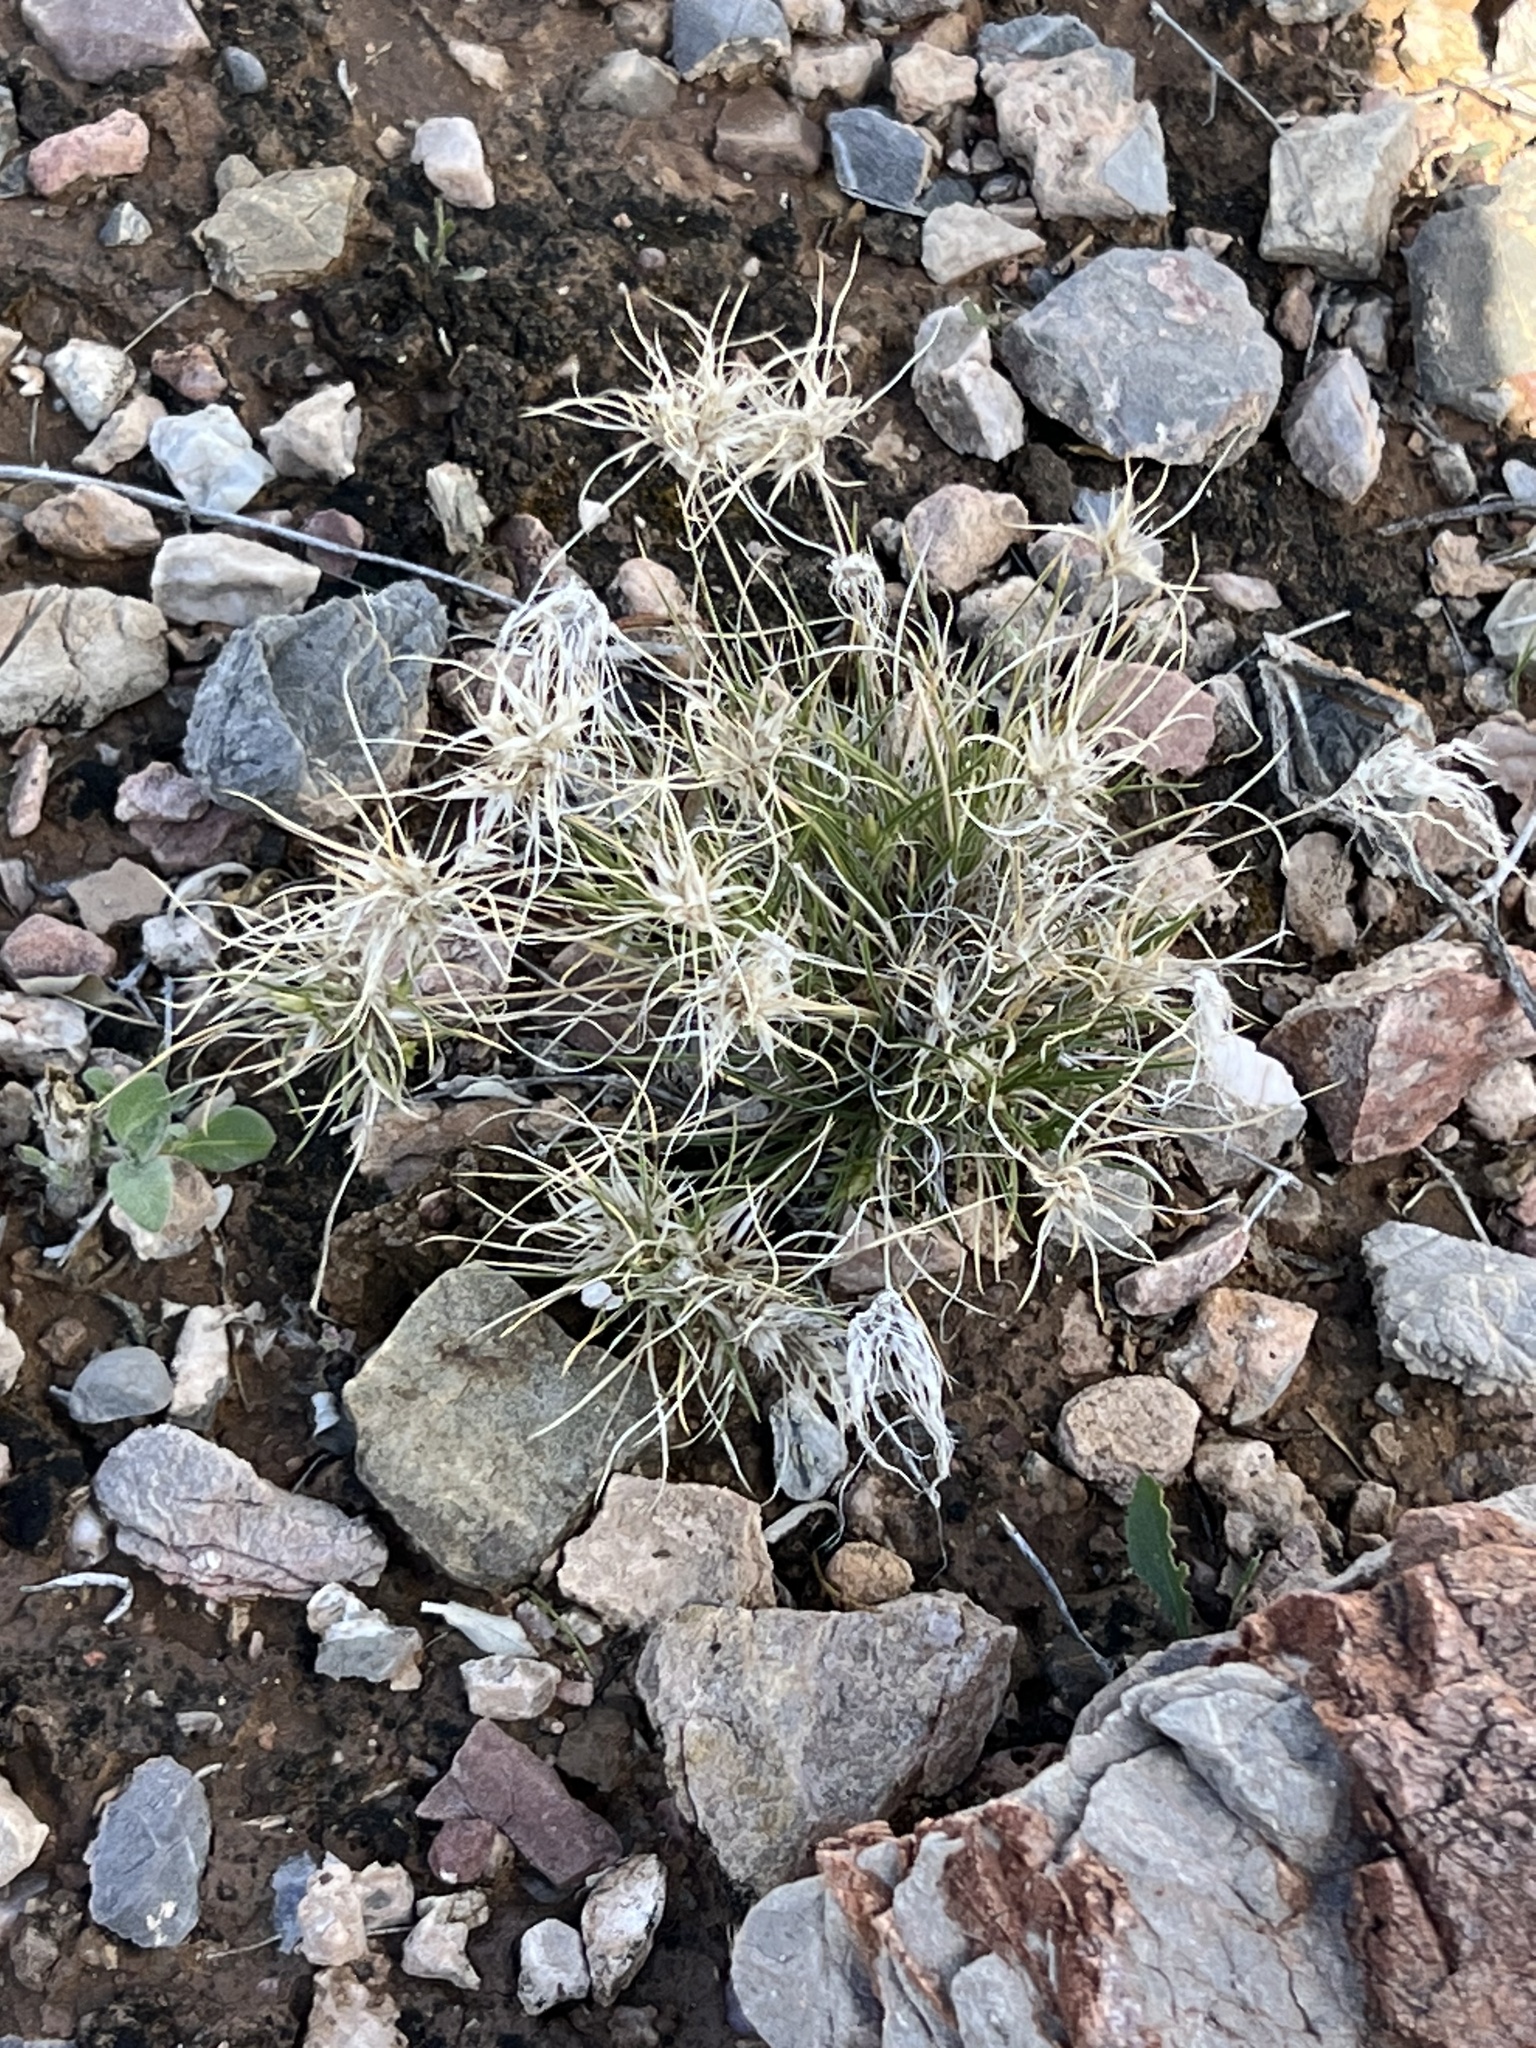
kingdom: Plantae
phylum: Tracheophyta
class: Liliopsida
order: Poales
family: Poaceae
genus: Dasyochloa
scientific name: Dasyochloa pulchella
